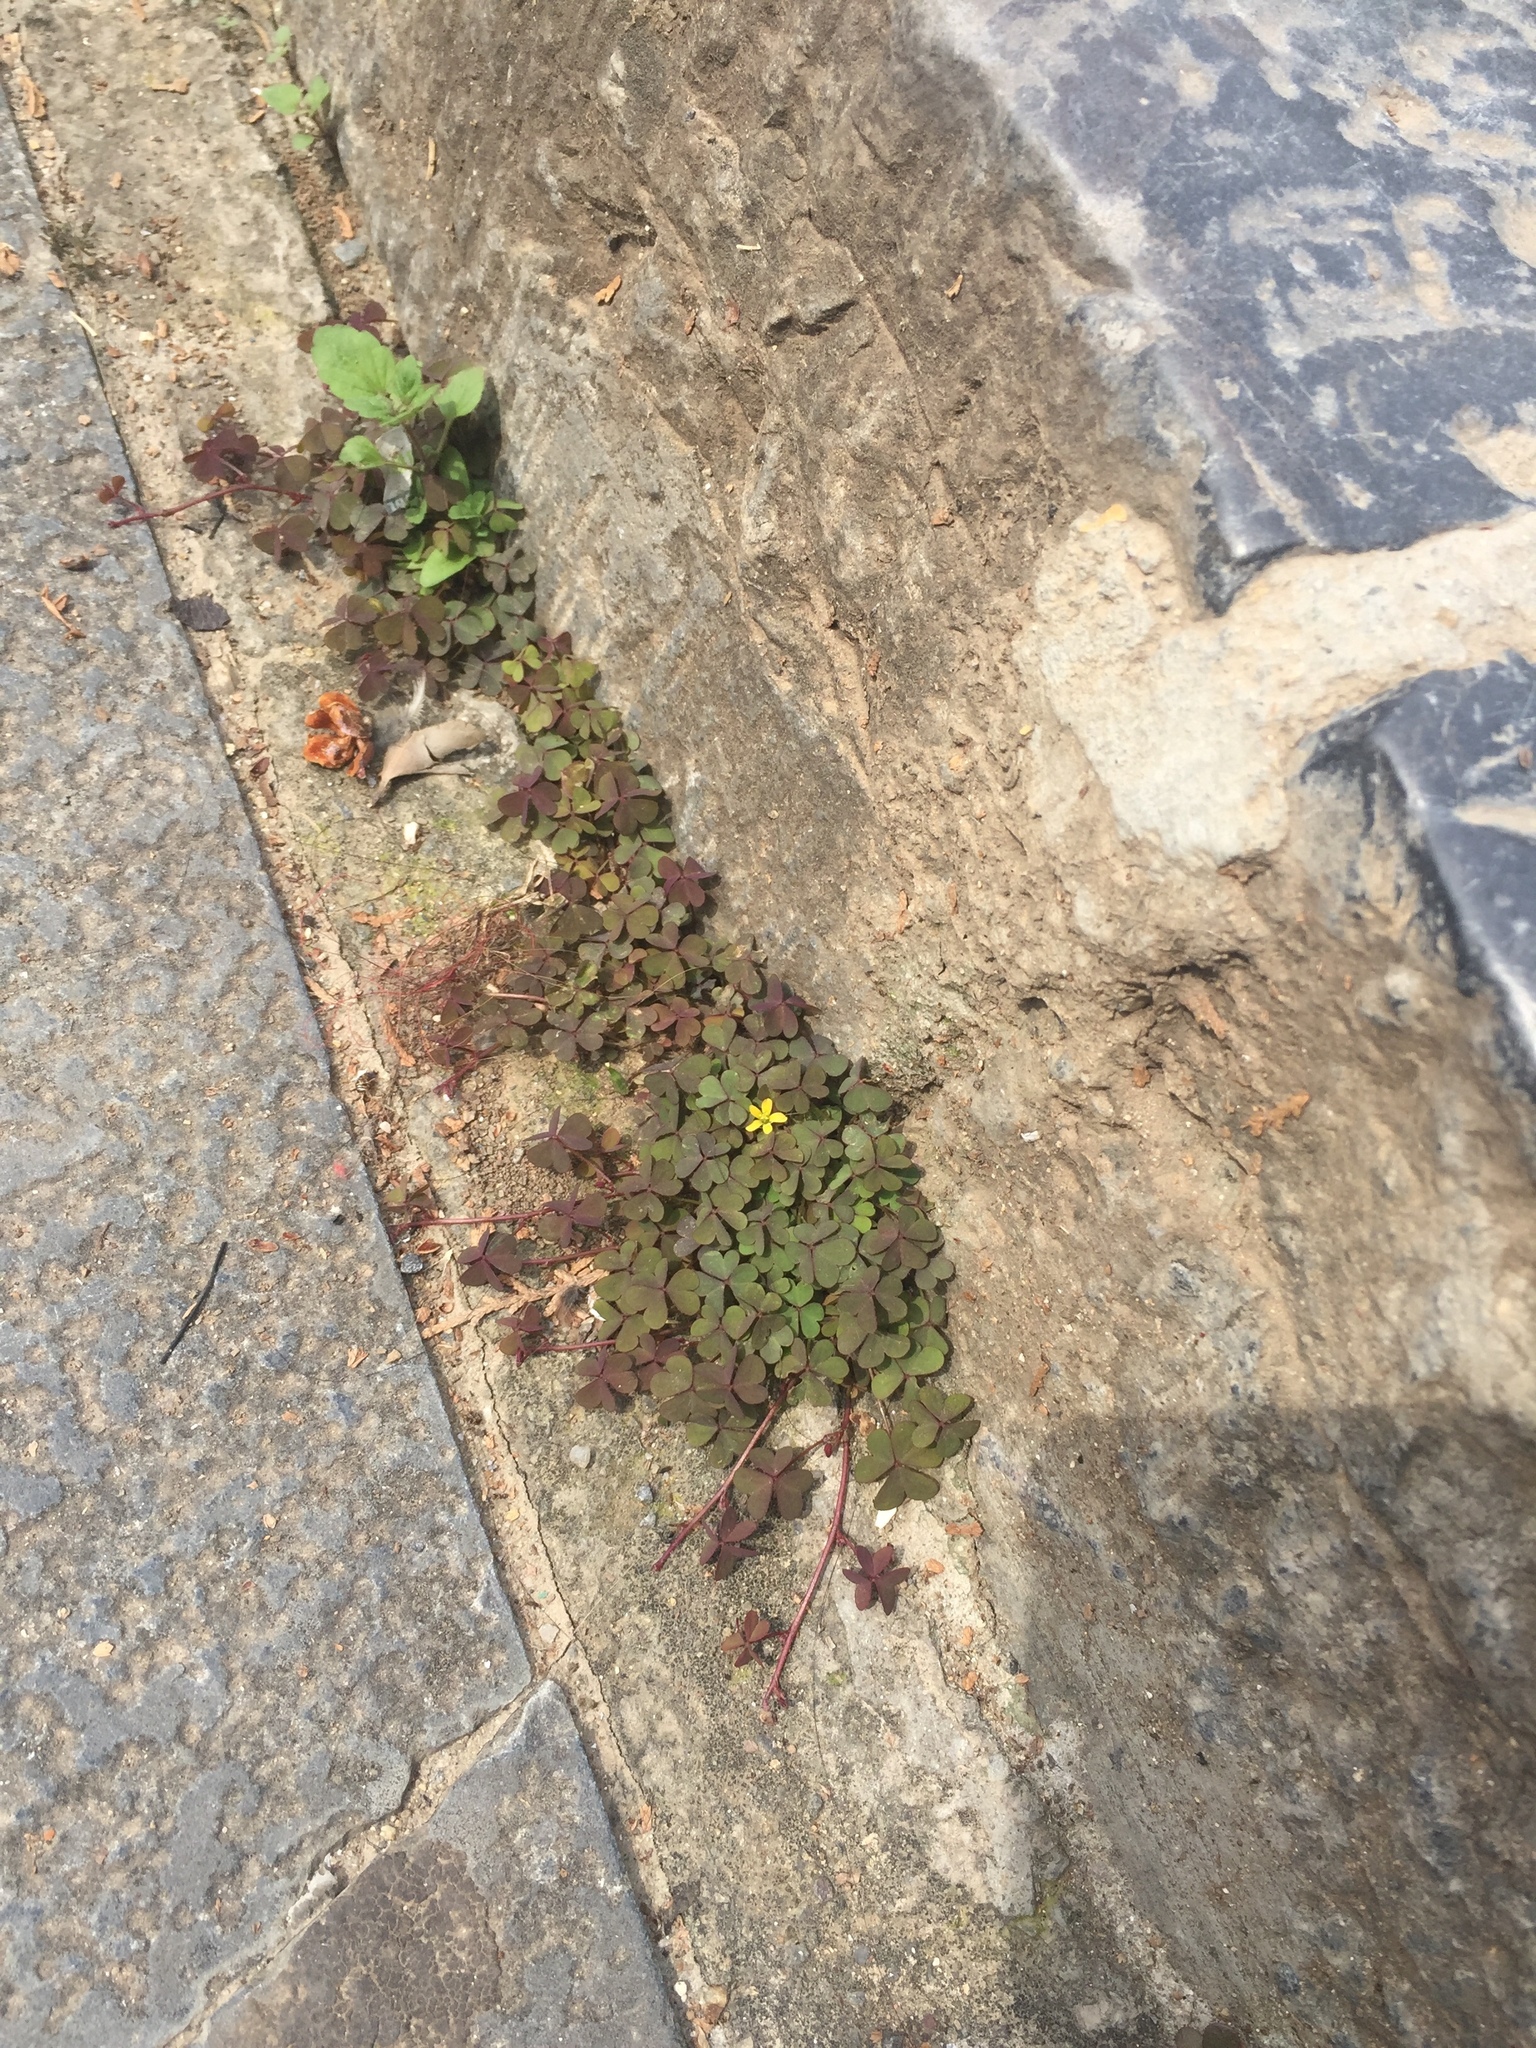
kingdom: Plantae
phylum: Tracheophyta
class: Magnoliopsida
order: Oxalidales
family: Oxalidaceae
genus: Oxalis
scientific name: Oxalis corniculata
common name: Procumbent yellow-sorrel
